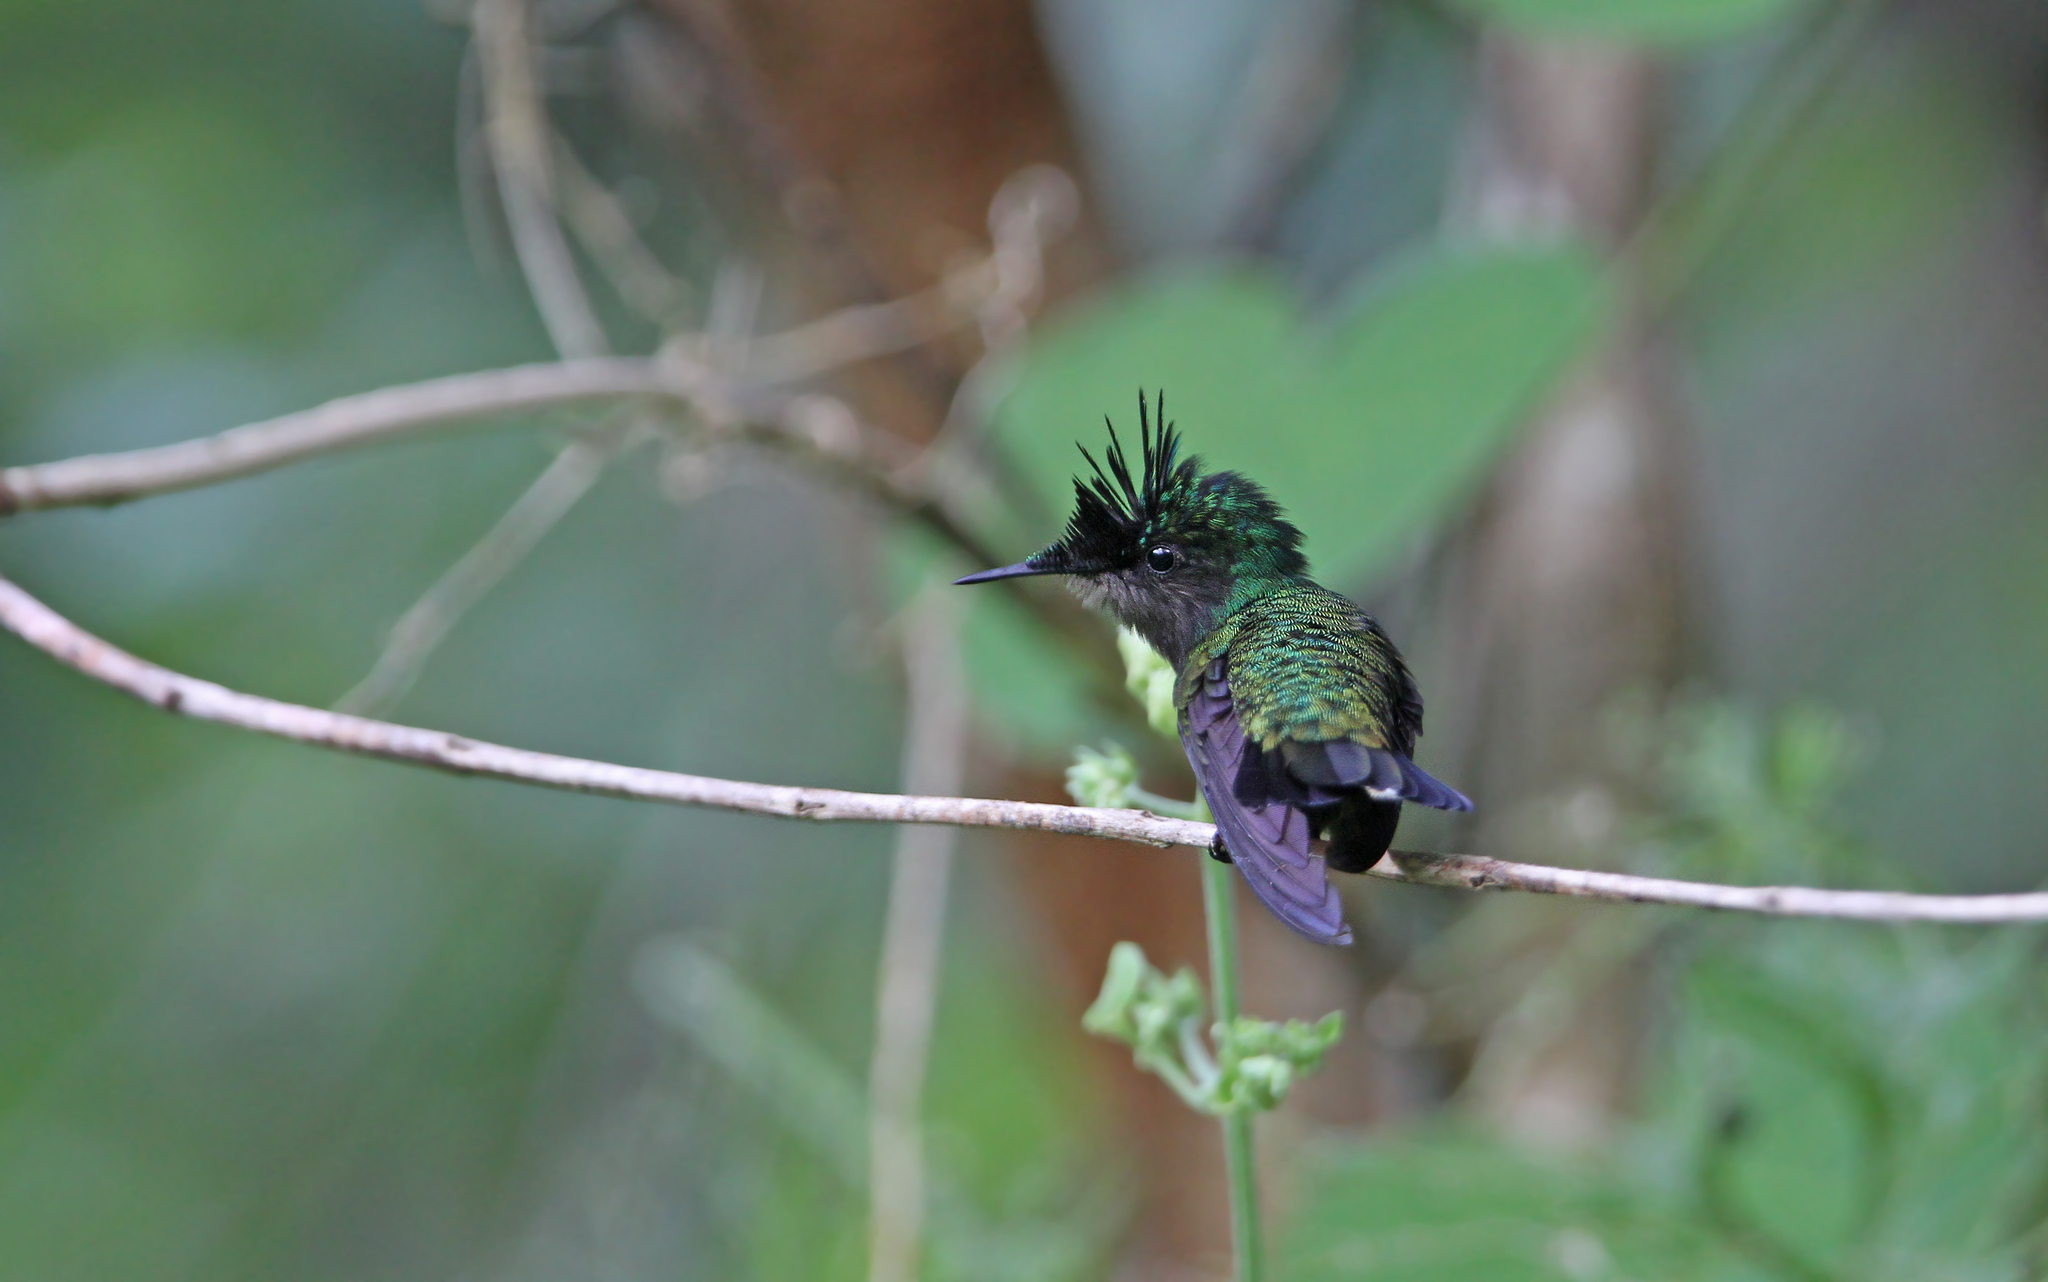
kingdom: Animalia
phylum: Chordata
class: Aves
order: Apodiformes
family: Trochilidae
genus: Orthorhyncus
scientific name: Orthorhyncus cristatus
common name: Antillean crested hummingbird
